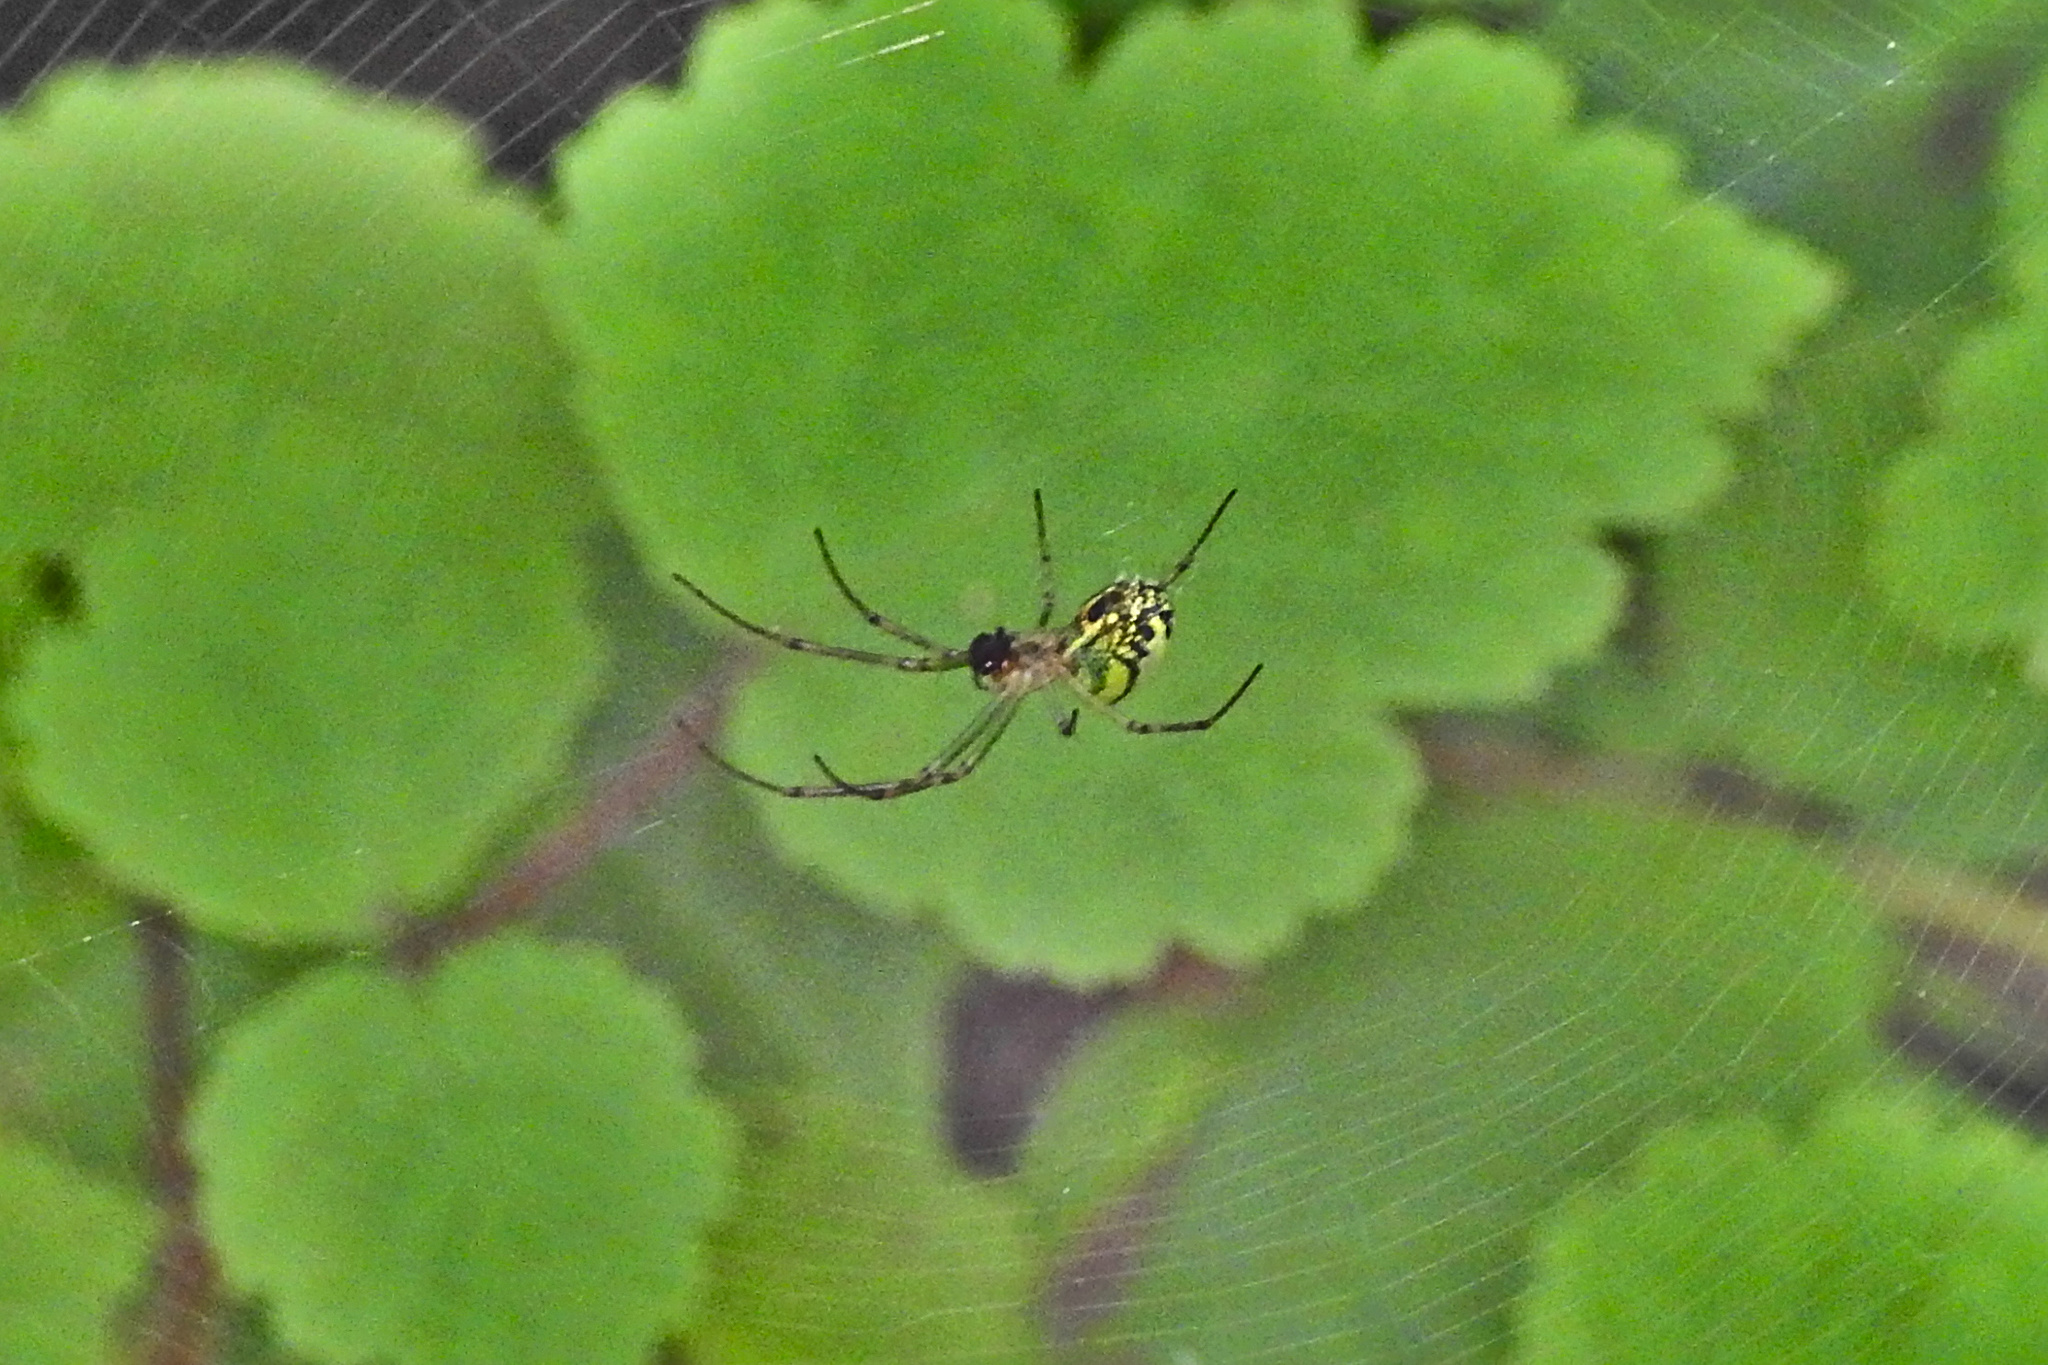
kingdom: Animalia
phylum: Arthropoda
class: Arachnida
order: Araneae
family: Tetragnathidae
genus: Leucauge
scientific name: Leucauge venusta
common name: Longjawed orb weavers
